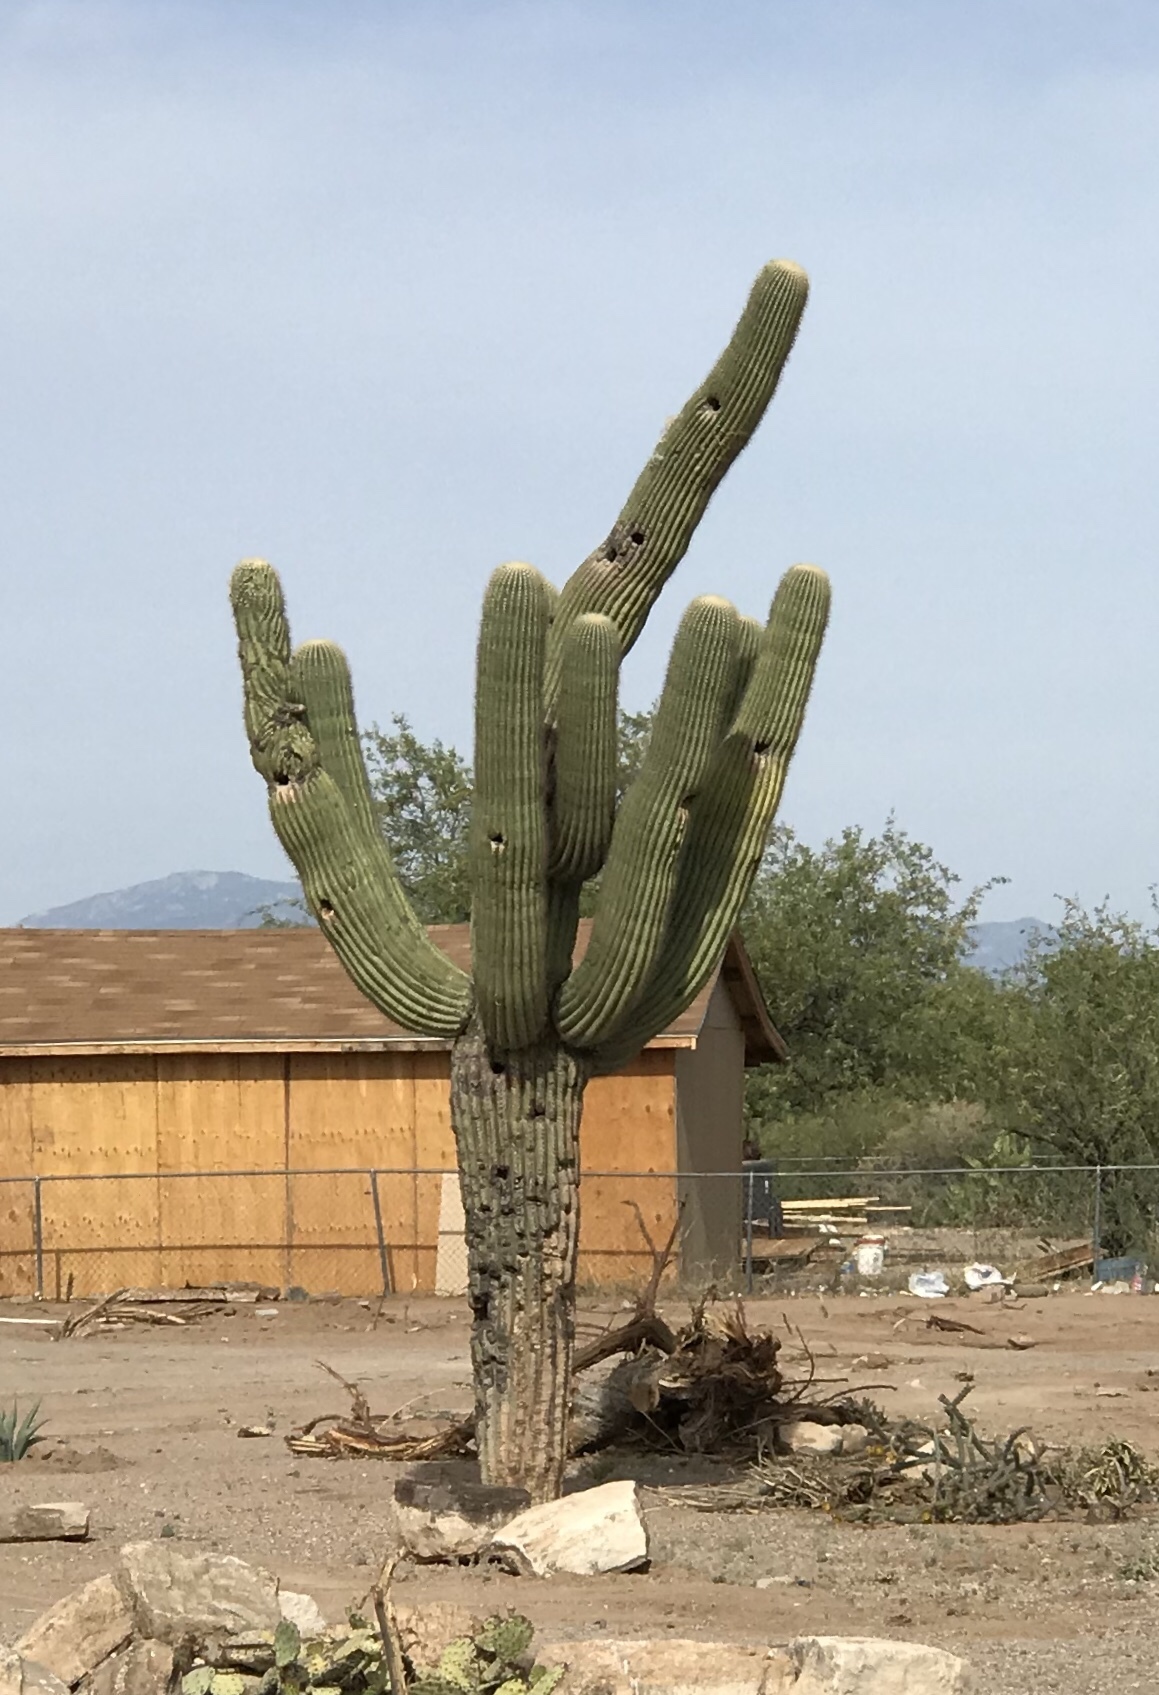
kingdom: Plantae
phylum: Tracheophyta
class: Magnoliopsida
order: Caryophyllales
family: Cactaceae
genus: Carnegiea
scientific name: Carnegiea gigantea
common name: Saguaro
